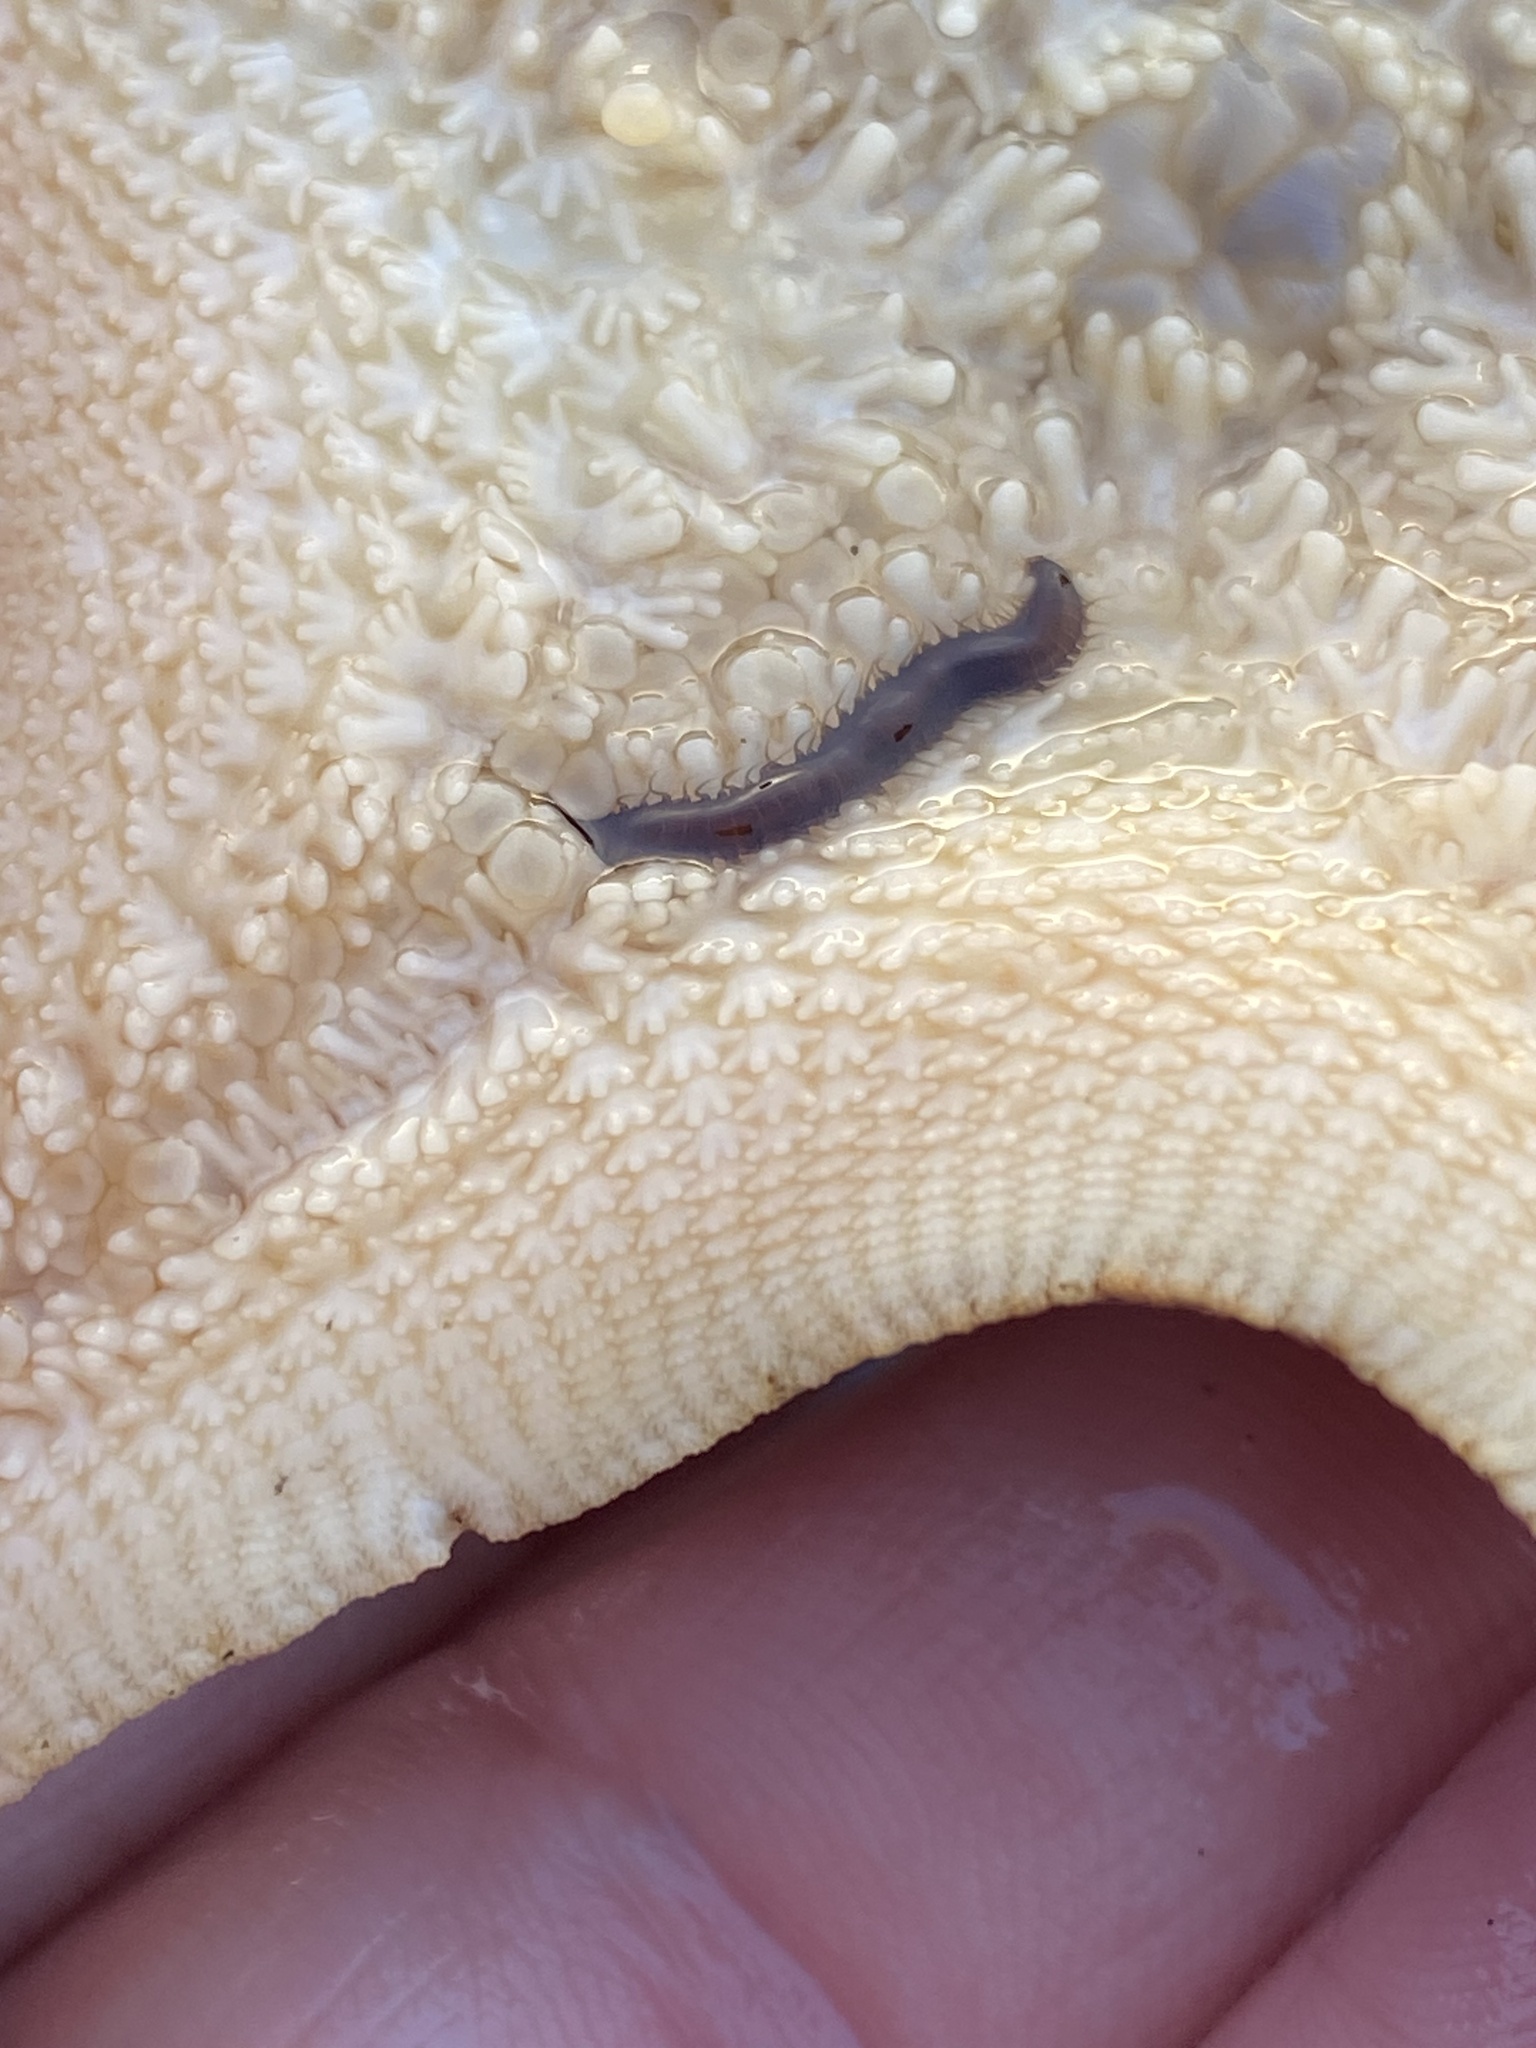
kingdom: Animalia
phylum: Annelida
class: Polychaeta
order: Phyllodocida
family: Hesionidae
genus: Oxydromus
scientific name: Oxydromus pugettensis
